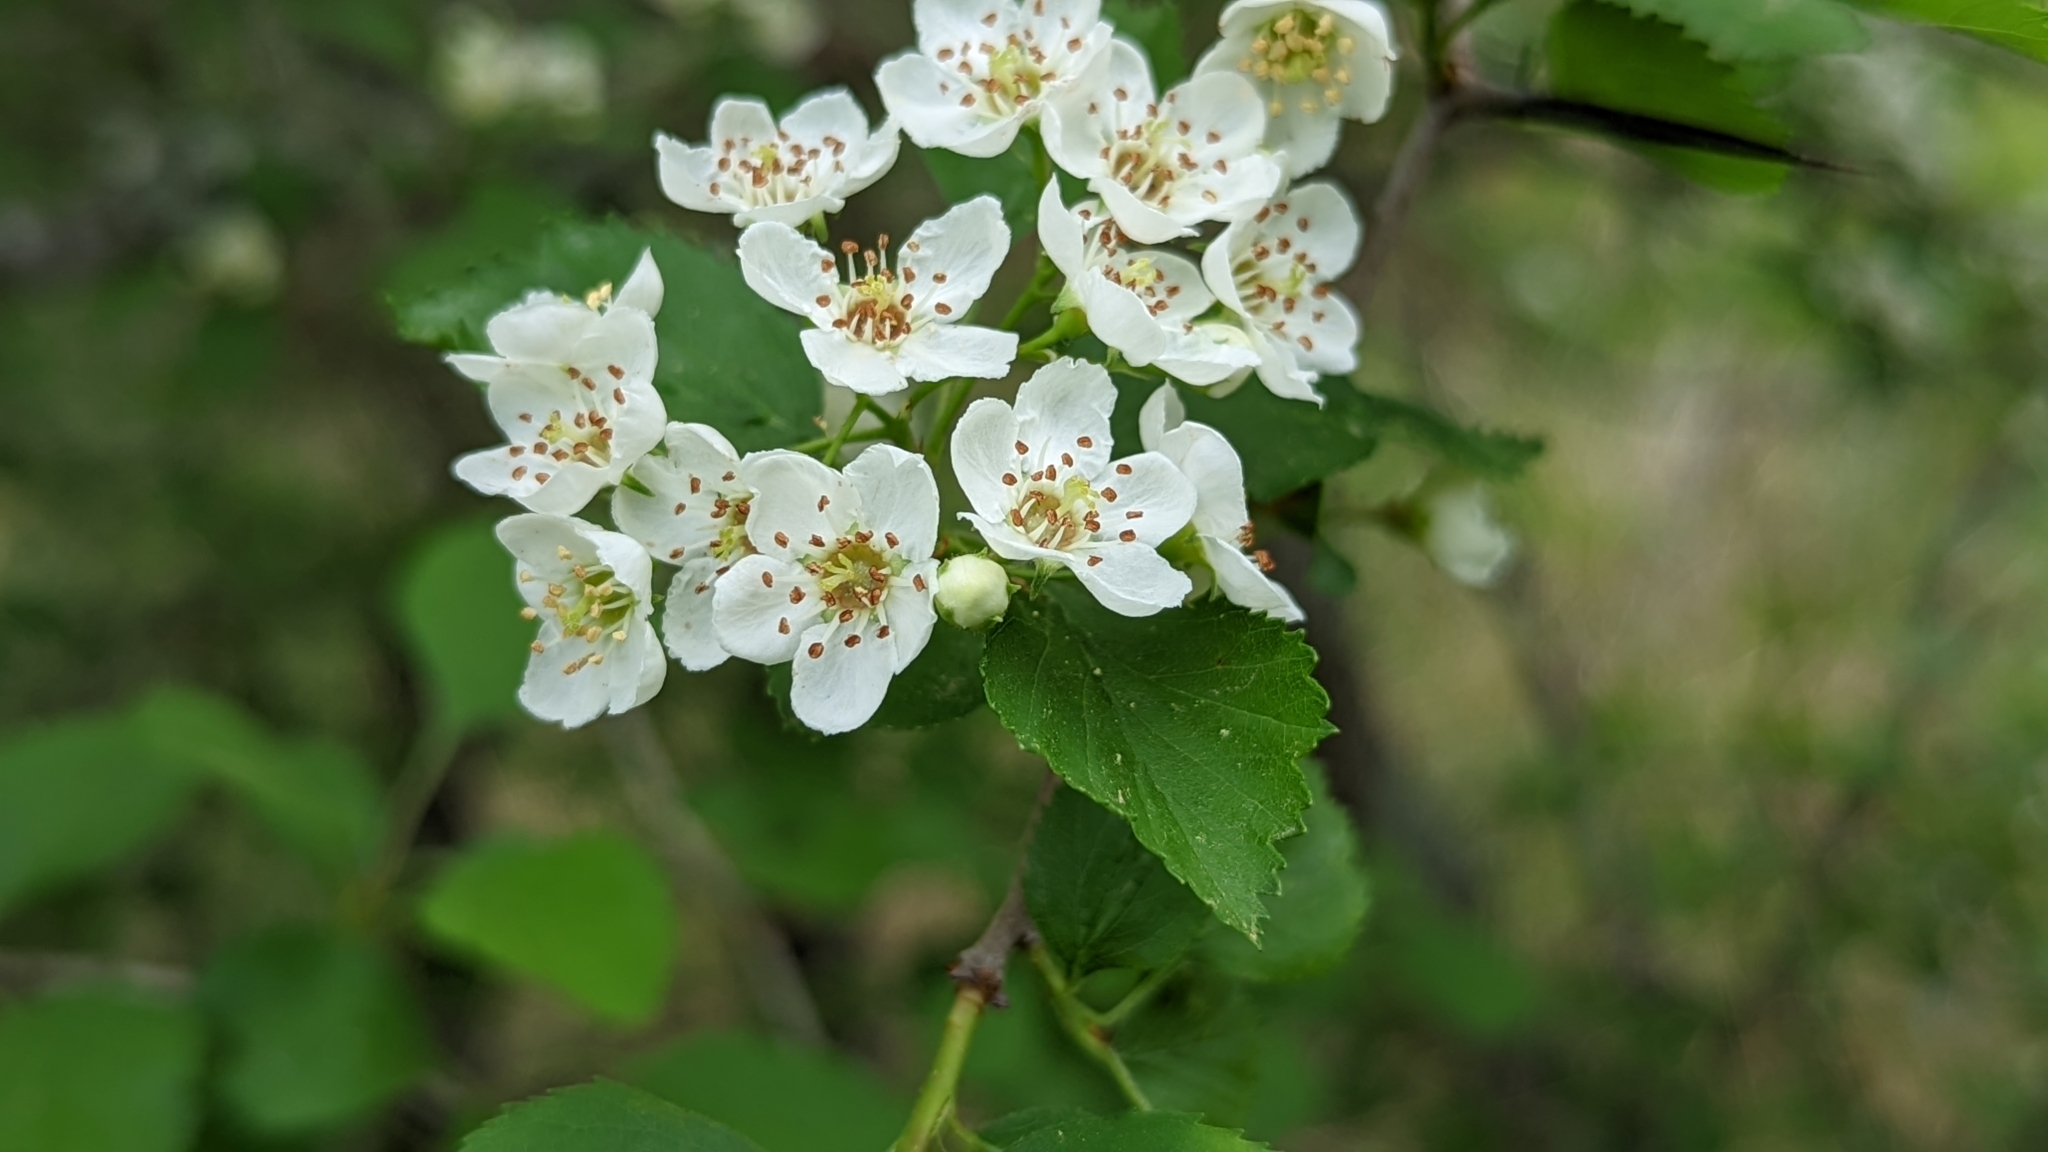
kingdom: Plantae
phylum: Tracheophyta
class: Magnoliopsida
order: Rosales
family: Rosaceae
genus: Crataegus
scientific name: Crataegus viridis
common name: Southernthorn
